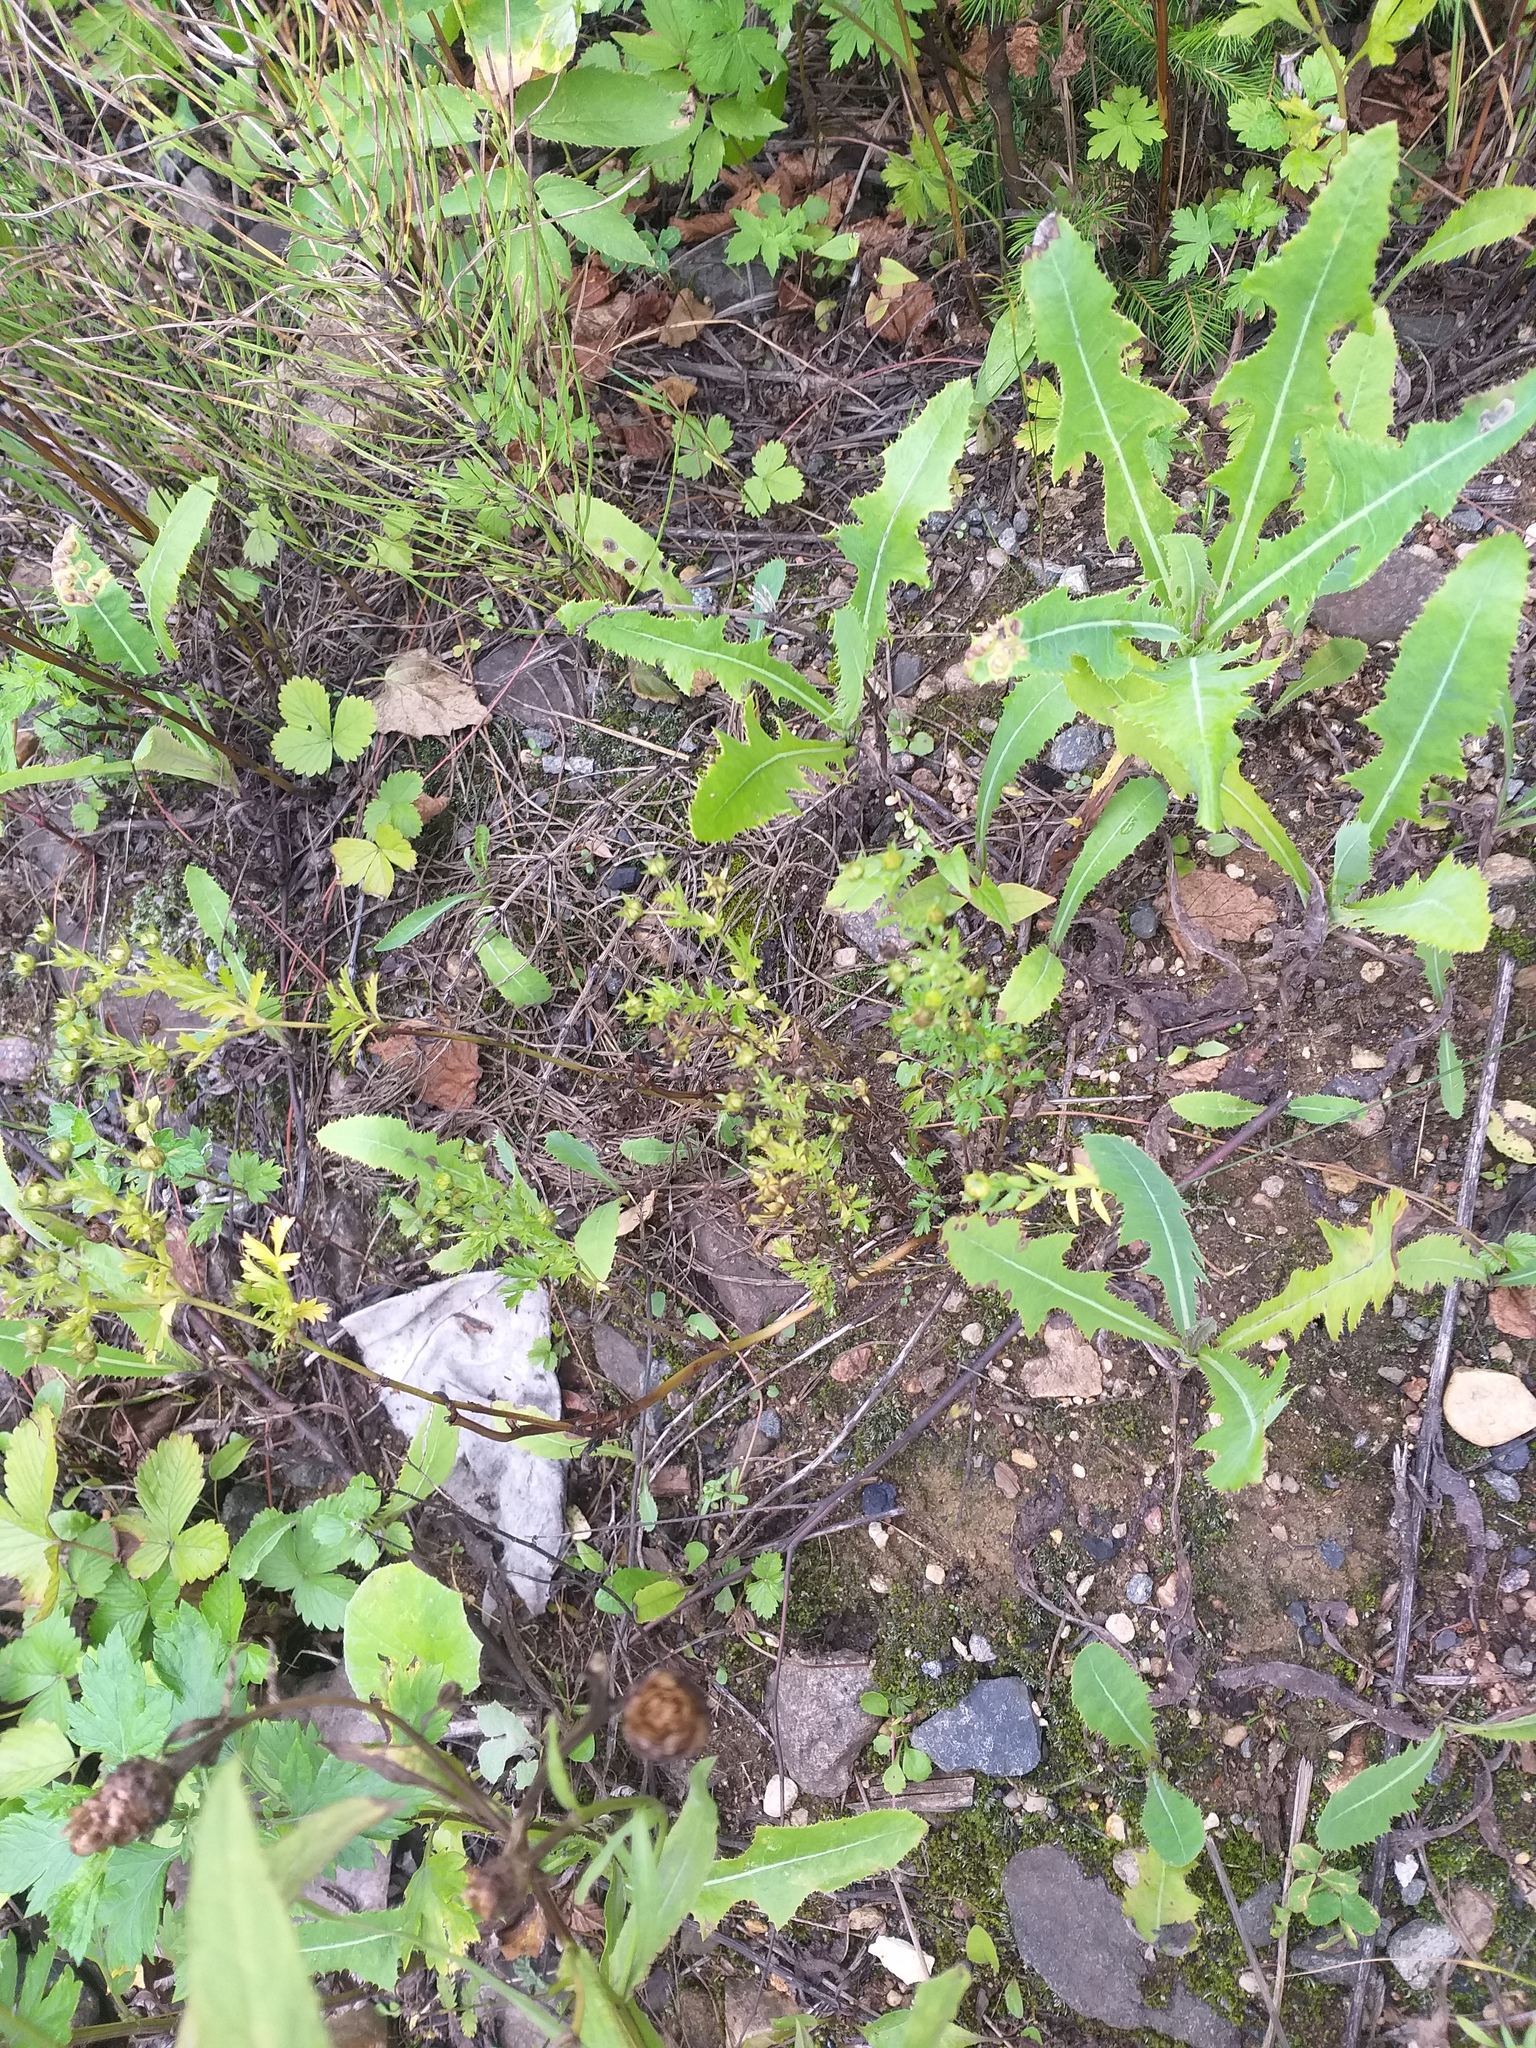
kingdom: Plantae
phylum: Tracheophyta
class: Magnoliopsida
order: Rosales
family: Rosaceae
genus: Potentilla
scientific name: Potentilla supina
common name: Prostrate cinquefoil
